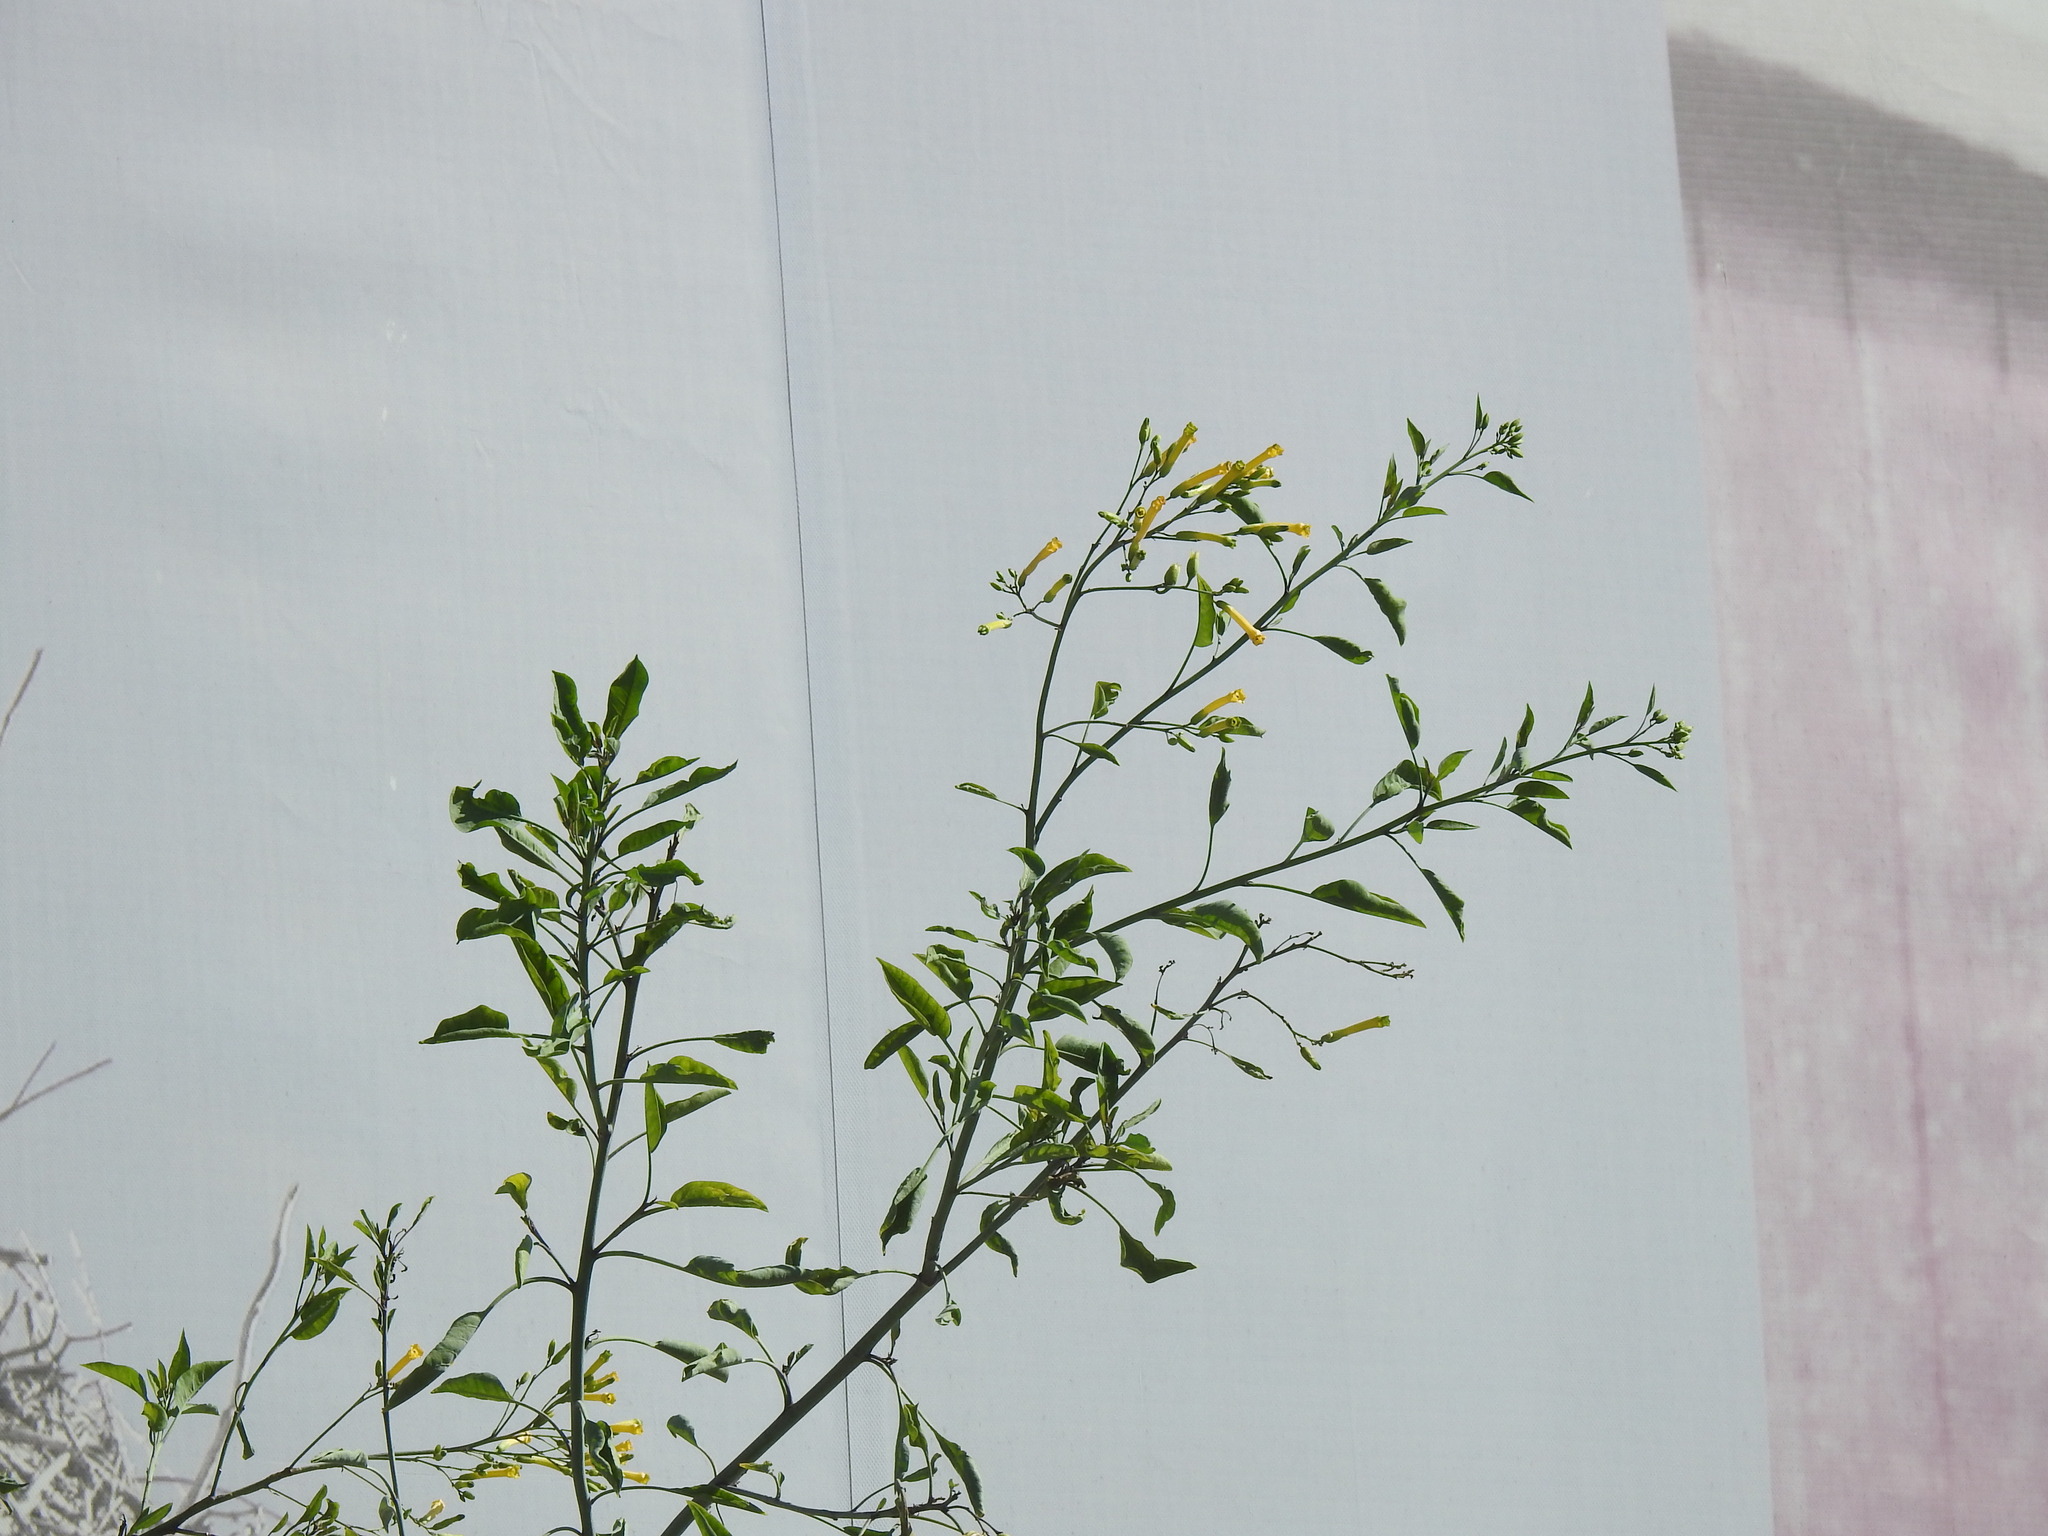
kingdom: Plantae
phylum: Tracheophyta
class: Magnoliopsida
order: Solanales
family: Solanaceae
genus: Nicotiana
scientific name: Nicotiana glauca
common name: Tree tobacco
